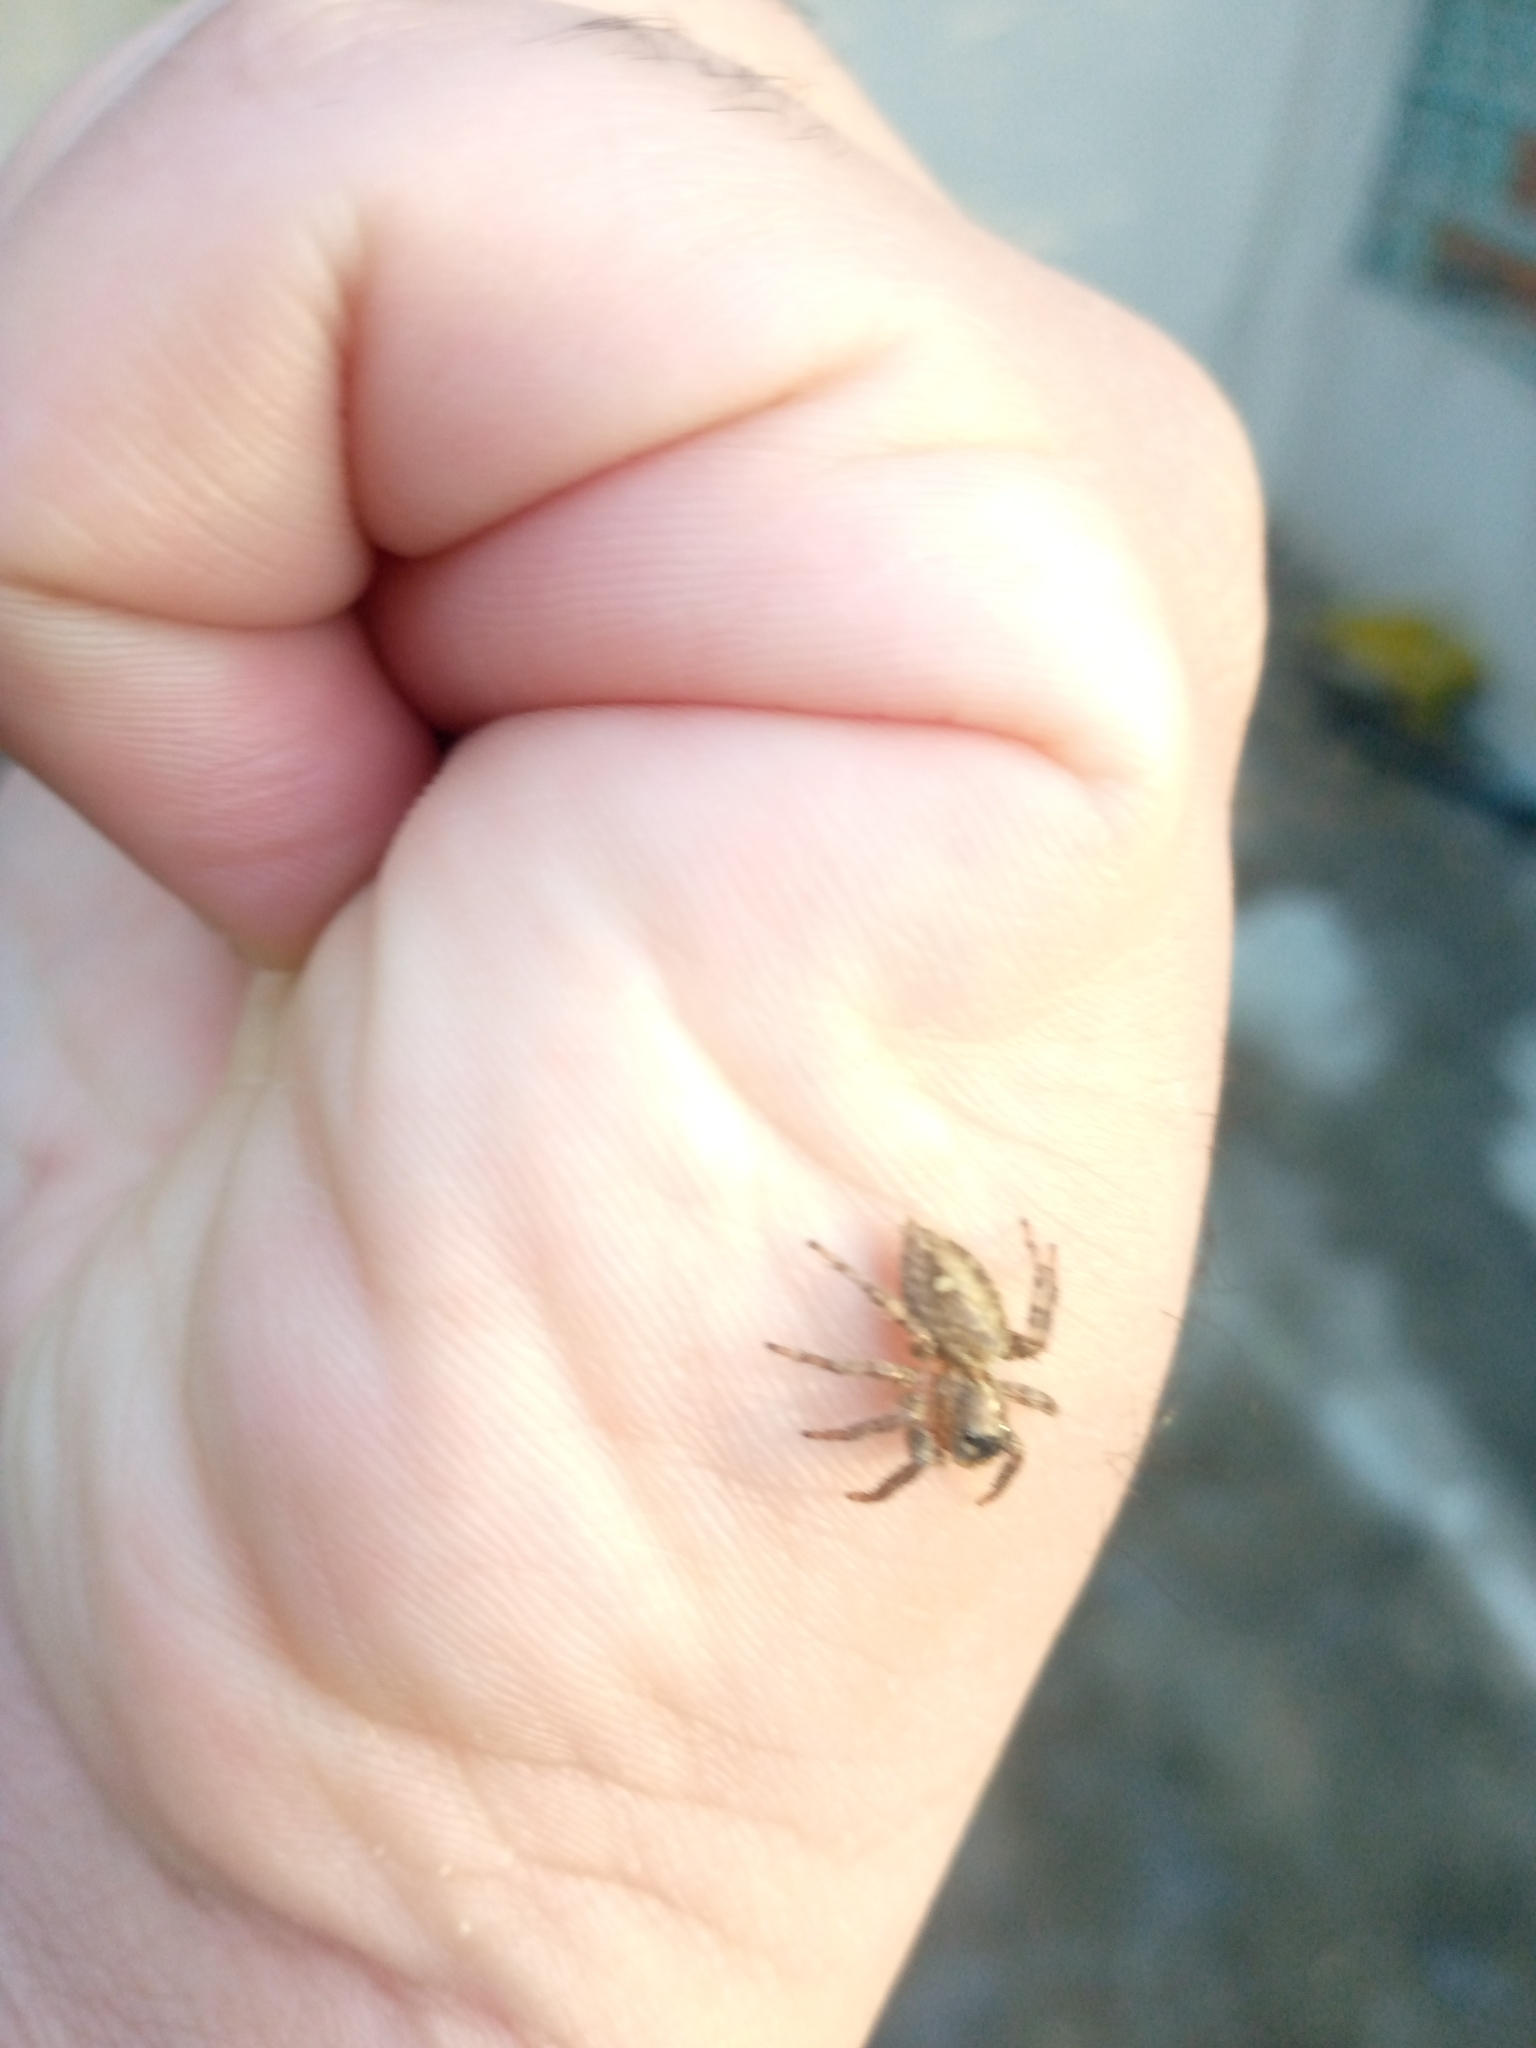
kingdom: Animalia
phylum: Arthropoda
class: Arachnida
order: Araneae
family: Salticidae
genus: Plexippus
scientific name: Plexippus paykulli
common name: Pantropical jumper
